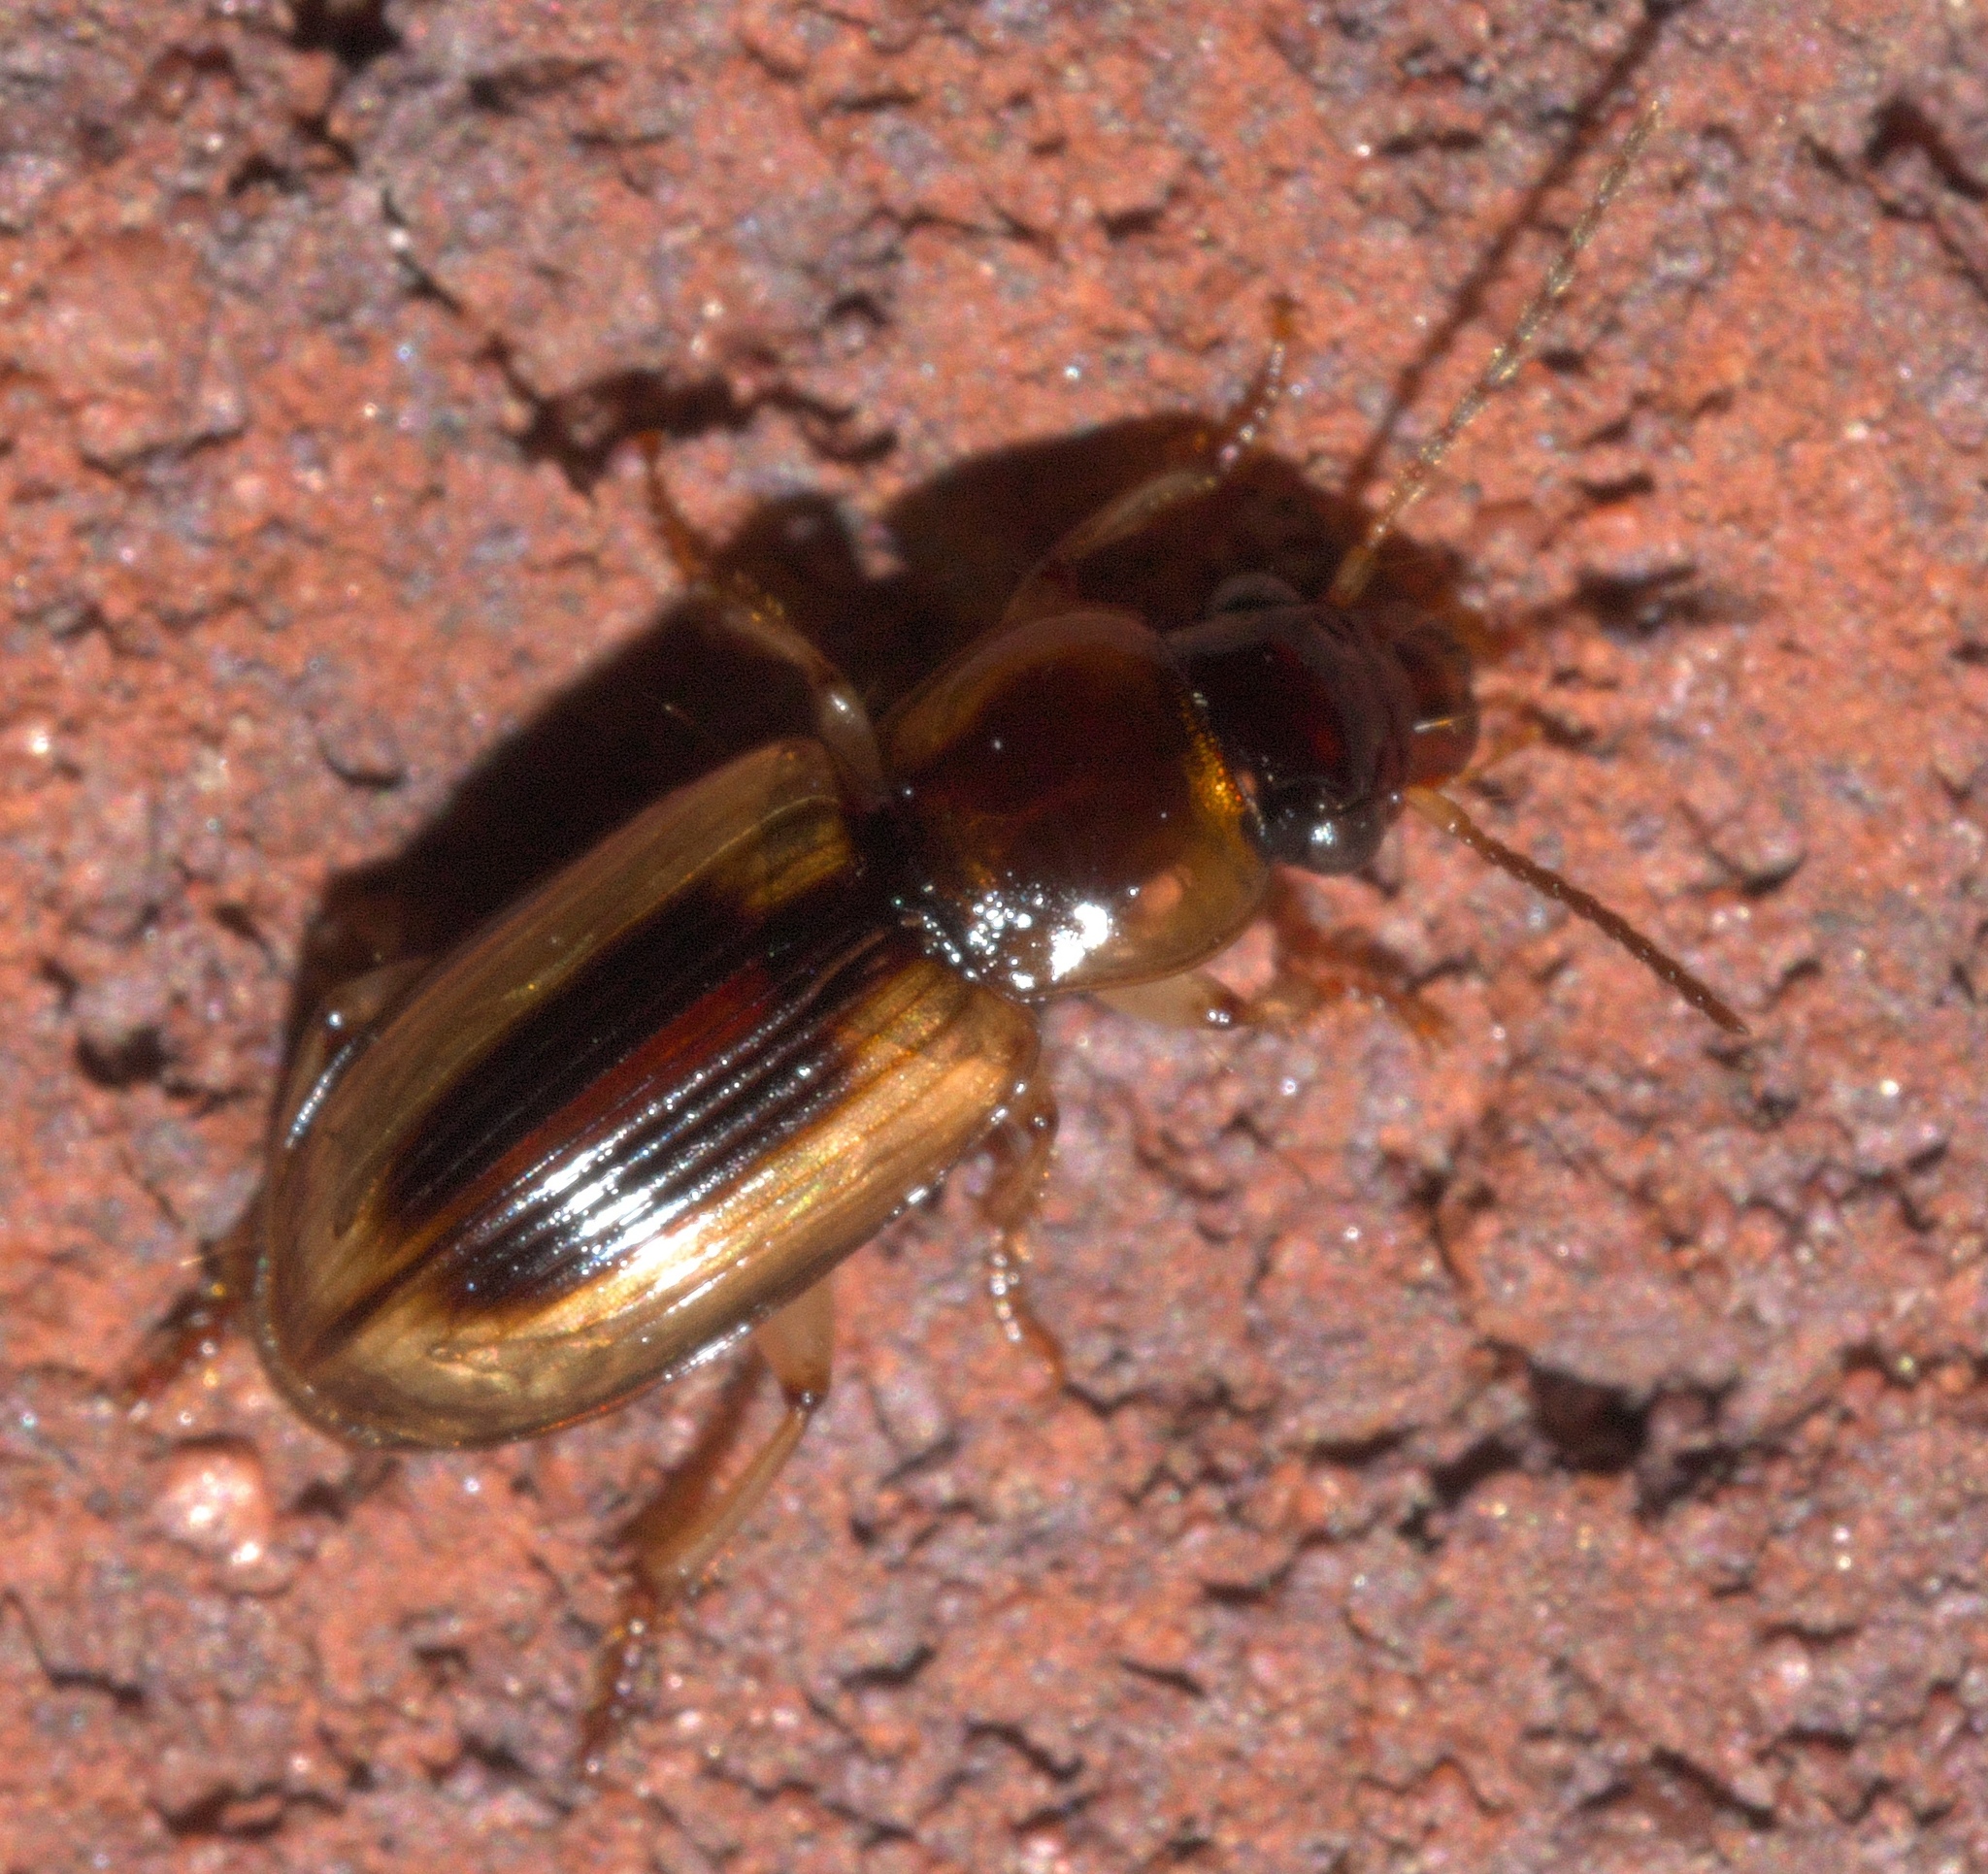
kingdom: Animalia
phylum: Arthropoda
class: Insecta
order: Coleoptera
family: Carabidae
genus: Stenolophus
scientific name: Stenolophus lecontei
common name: Leconte's seedcorn beetle
